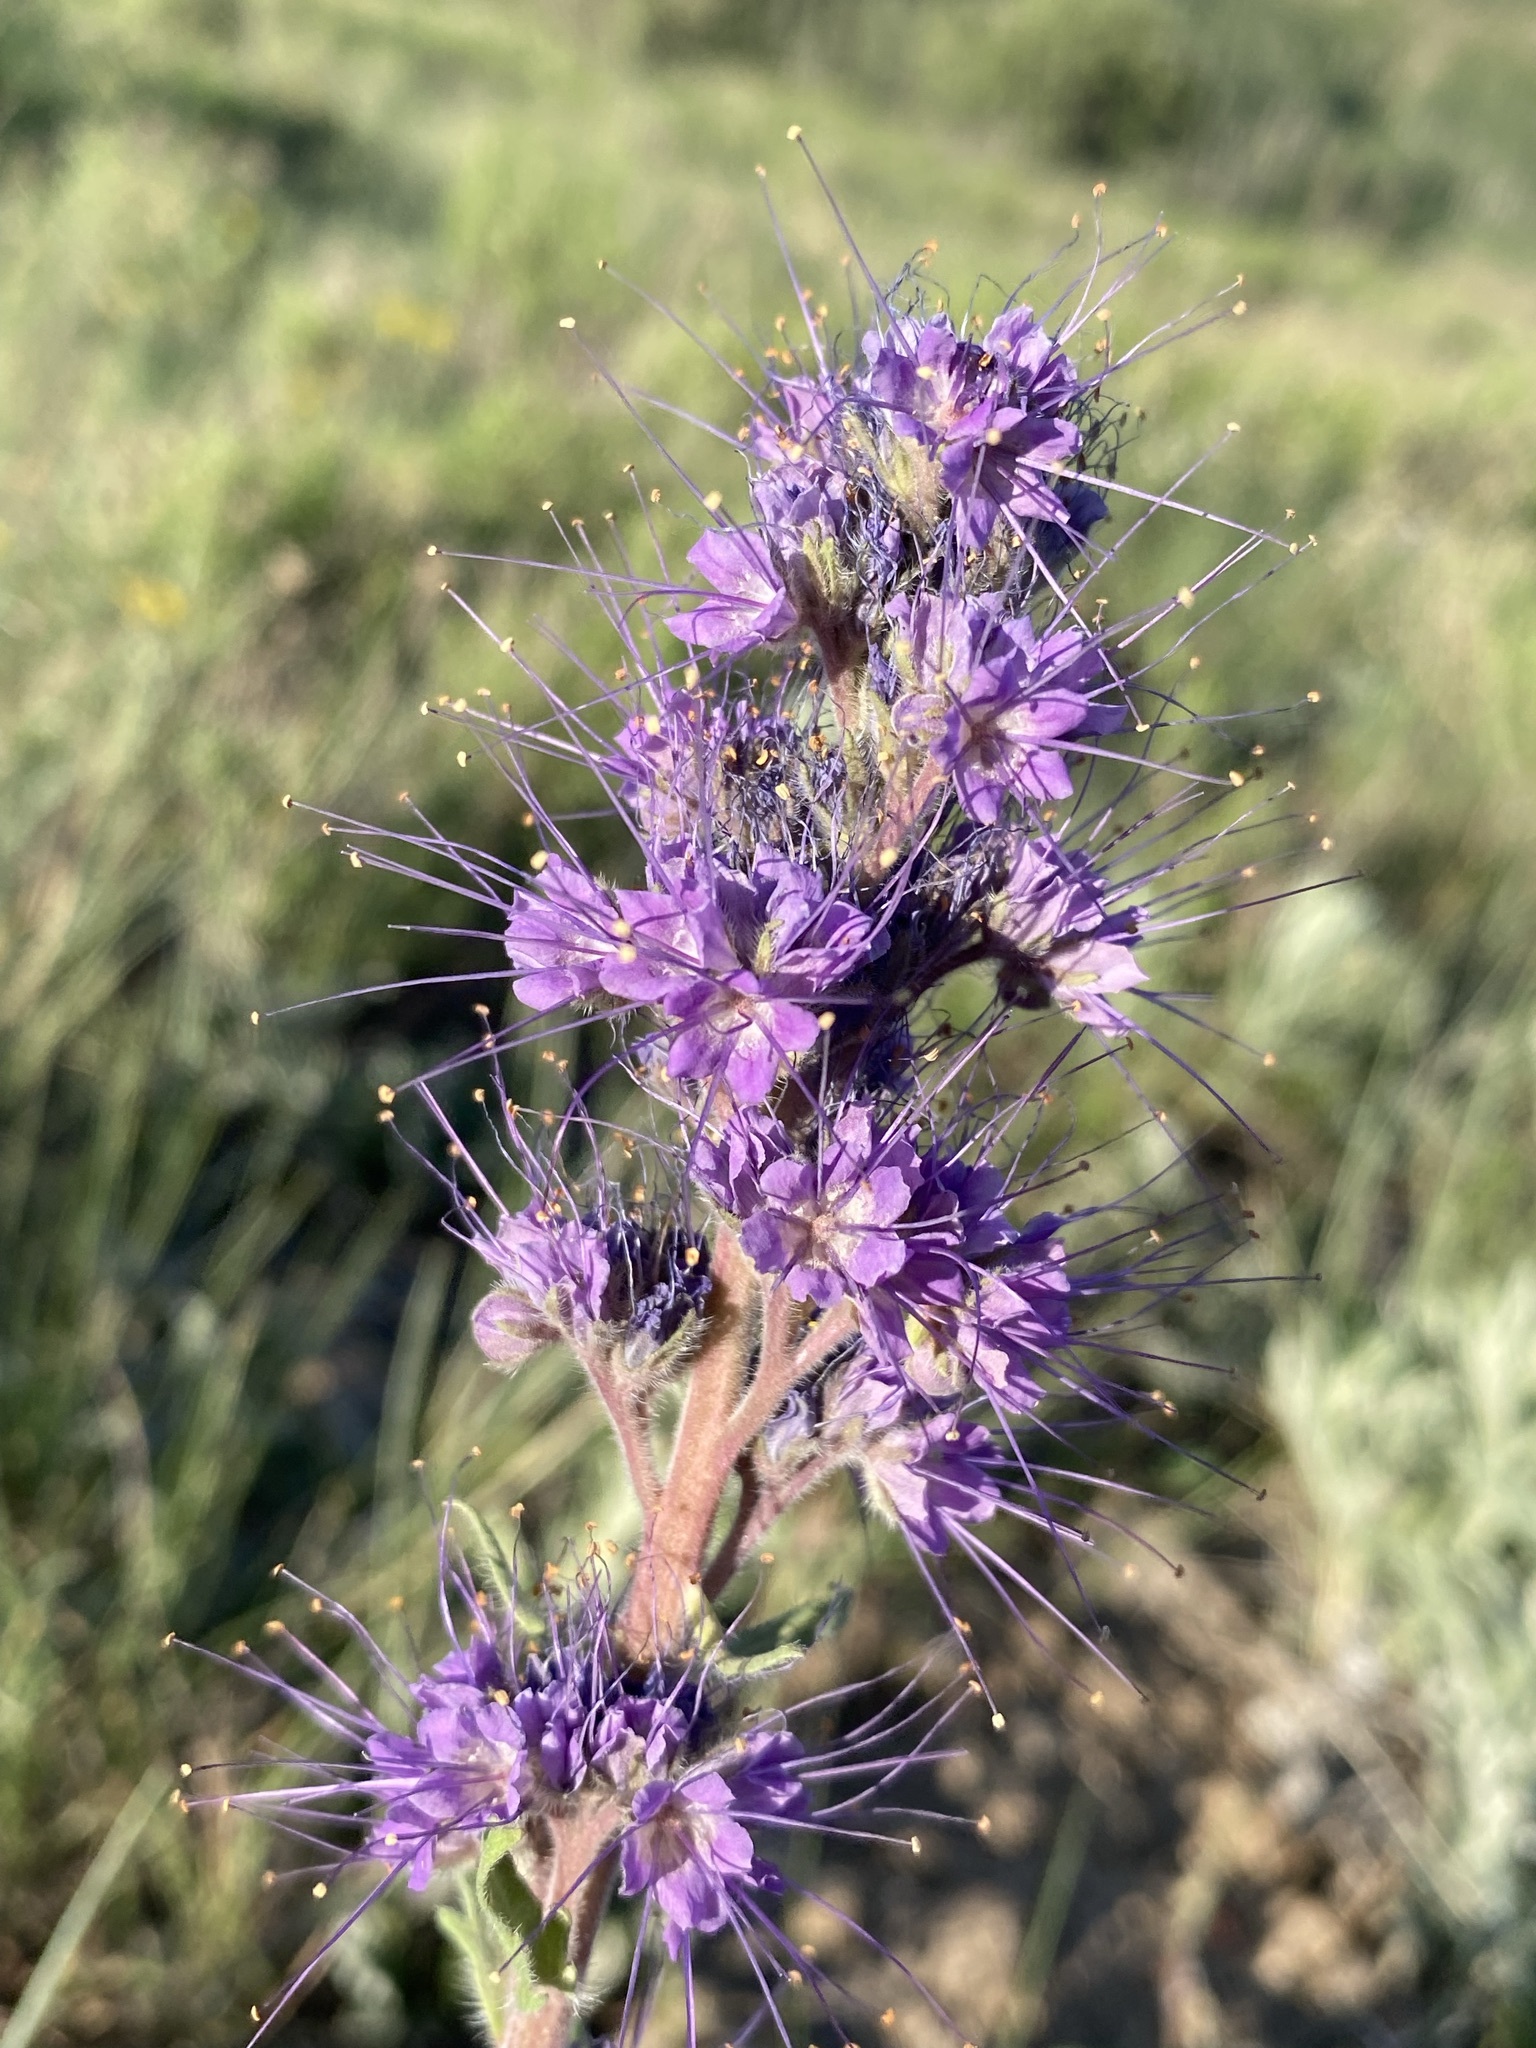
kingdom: Plantae
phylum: Tracheophyta
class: Magnoliopsida
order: Boraginales
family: Hydrophyllaceae
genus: Phacelia
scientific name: Phacelia sericea
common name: Silky phacelia
